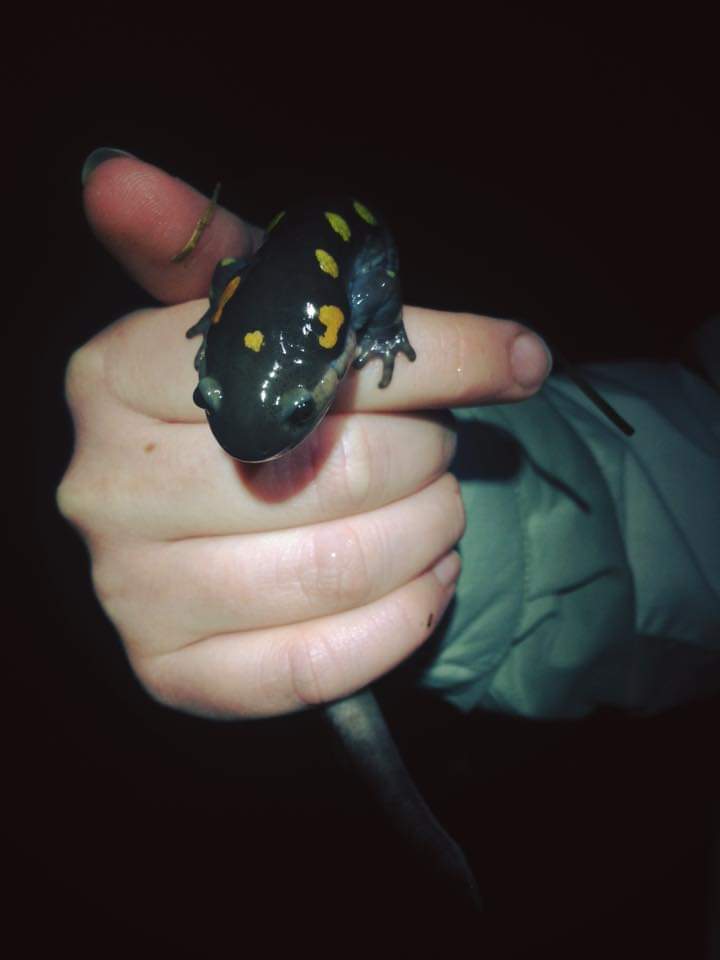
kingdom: Animalia
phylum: Chordata
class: Amphibia
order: Caudata
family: Ambystomatidae
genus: Ambystoma
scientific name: Ambystoma maculatum
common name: Spotted salamander
